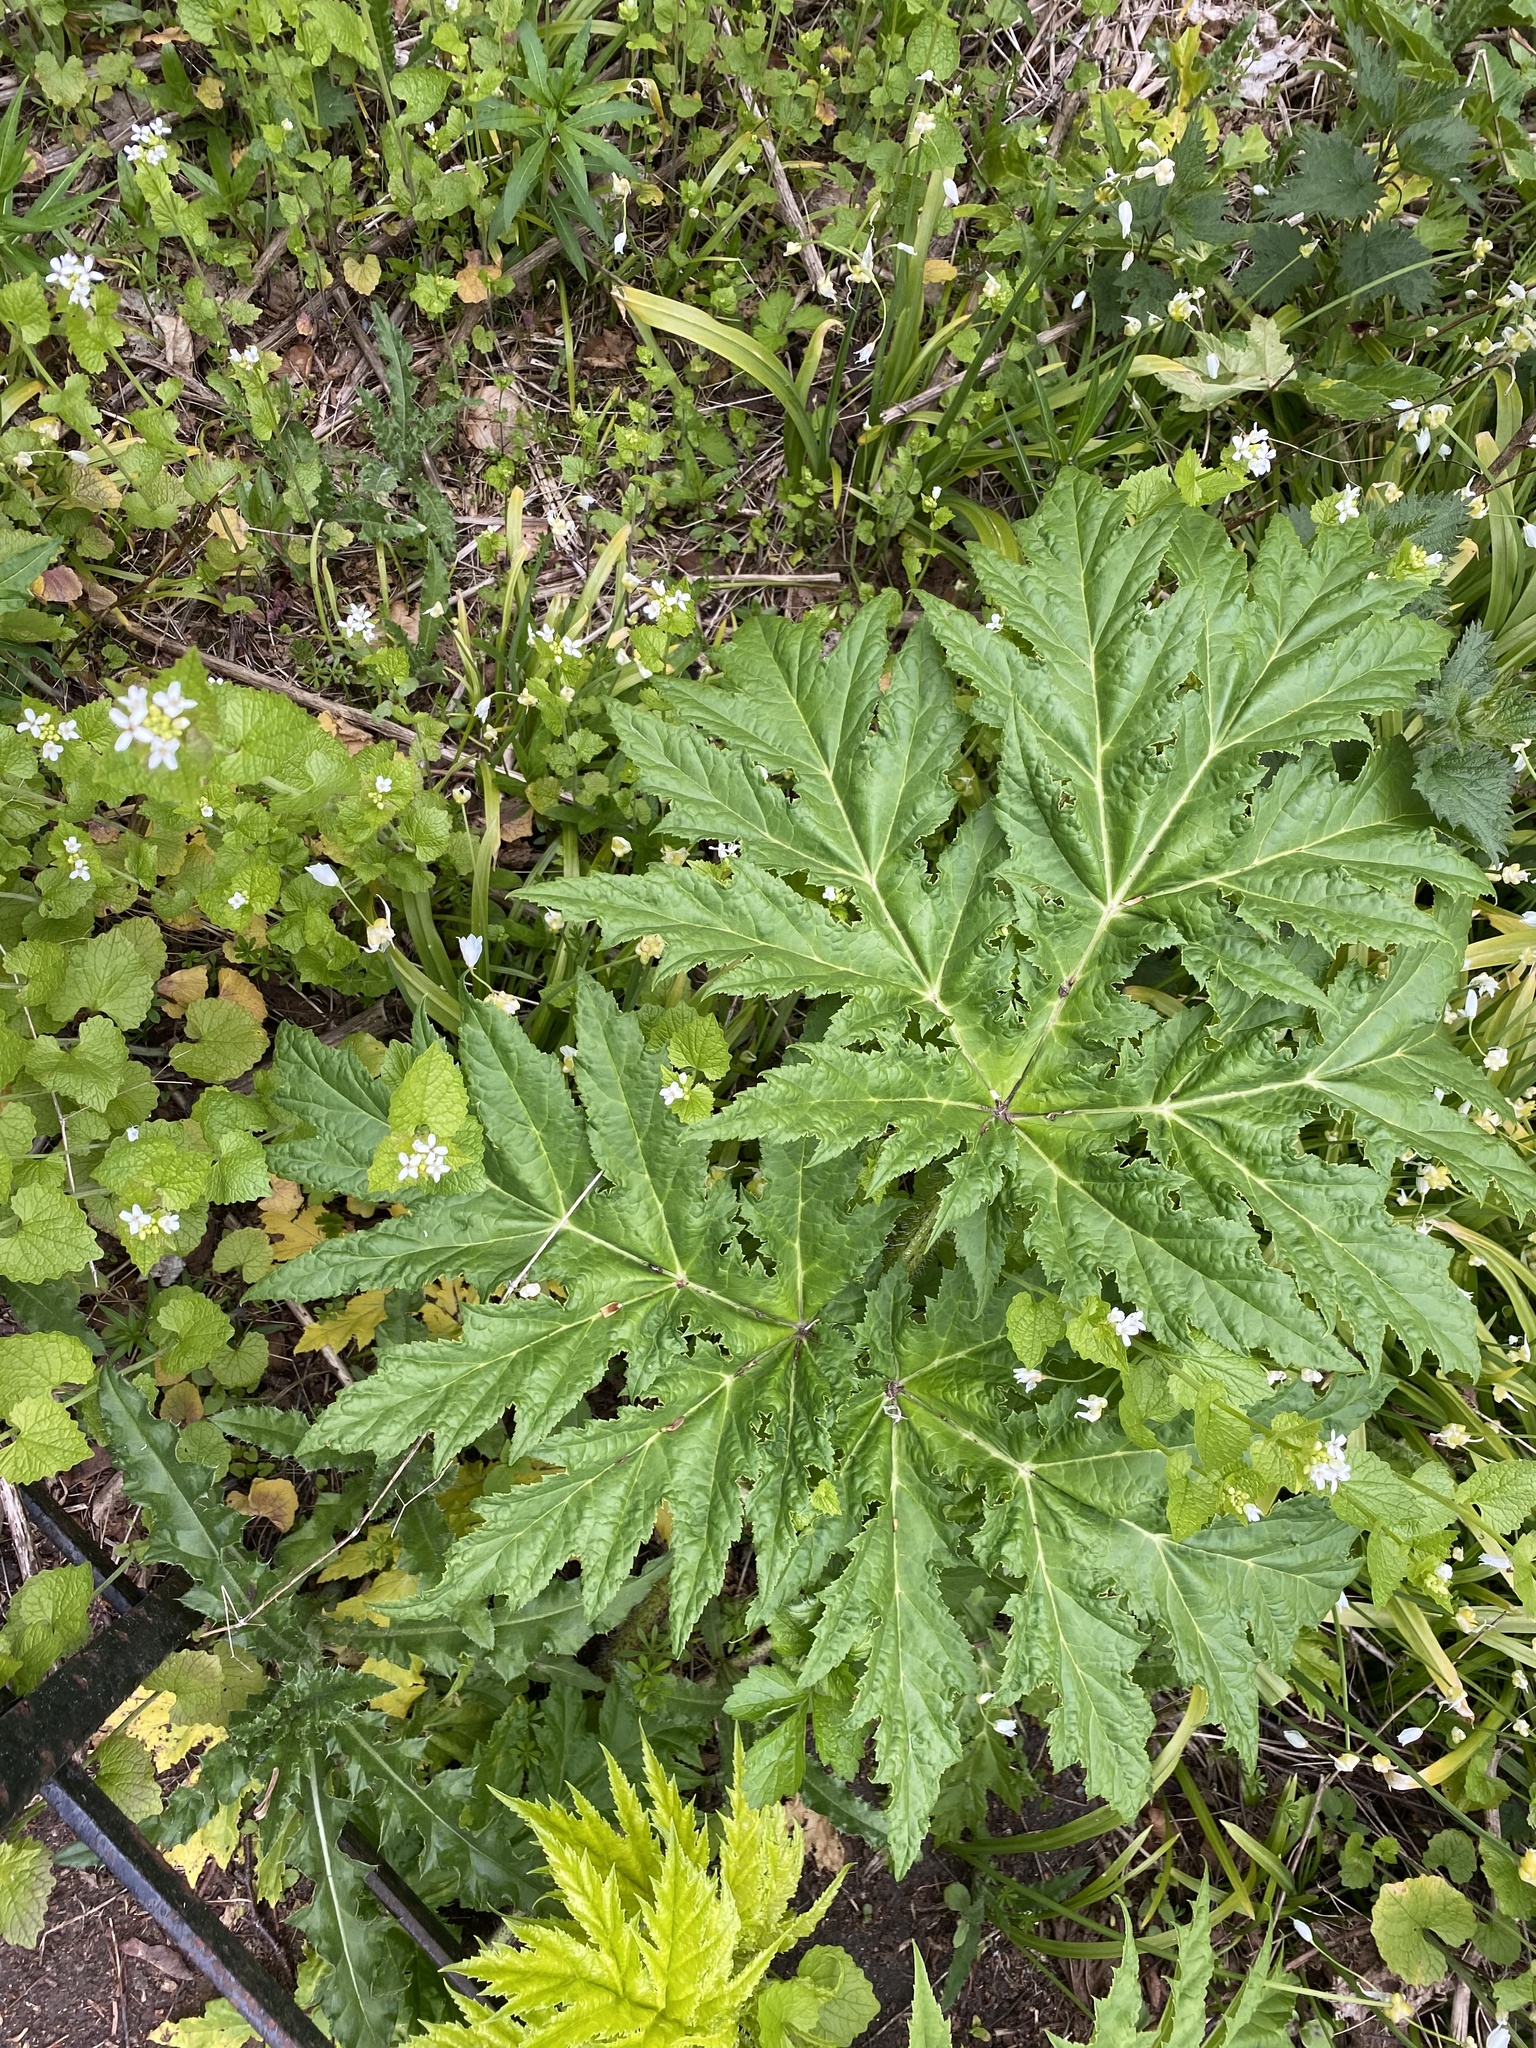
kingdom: Plantae
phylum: Tracheophyta
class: Magnoliopsida
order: Apiales
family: Apiaceae
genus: Heracleum
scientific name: Heracleum mantegazzianum
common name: Giant hogweed
